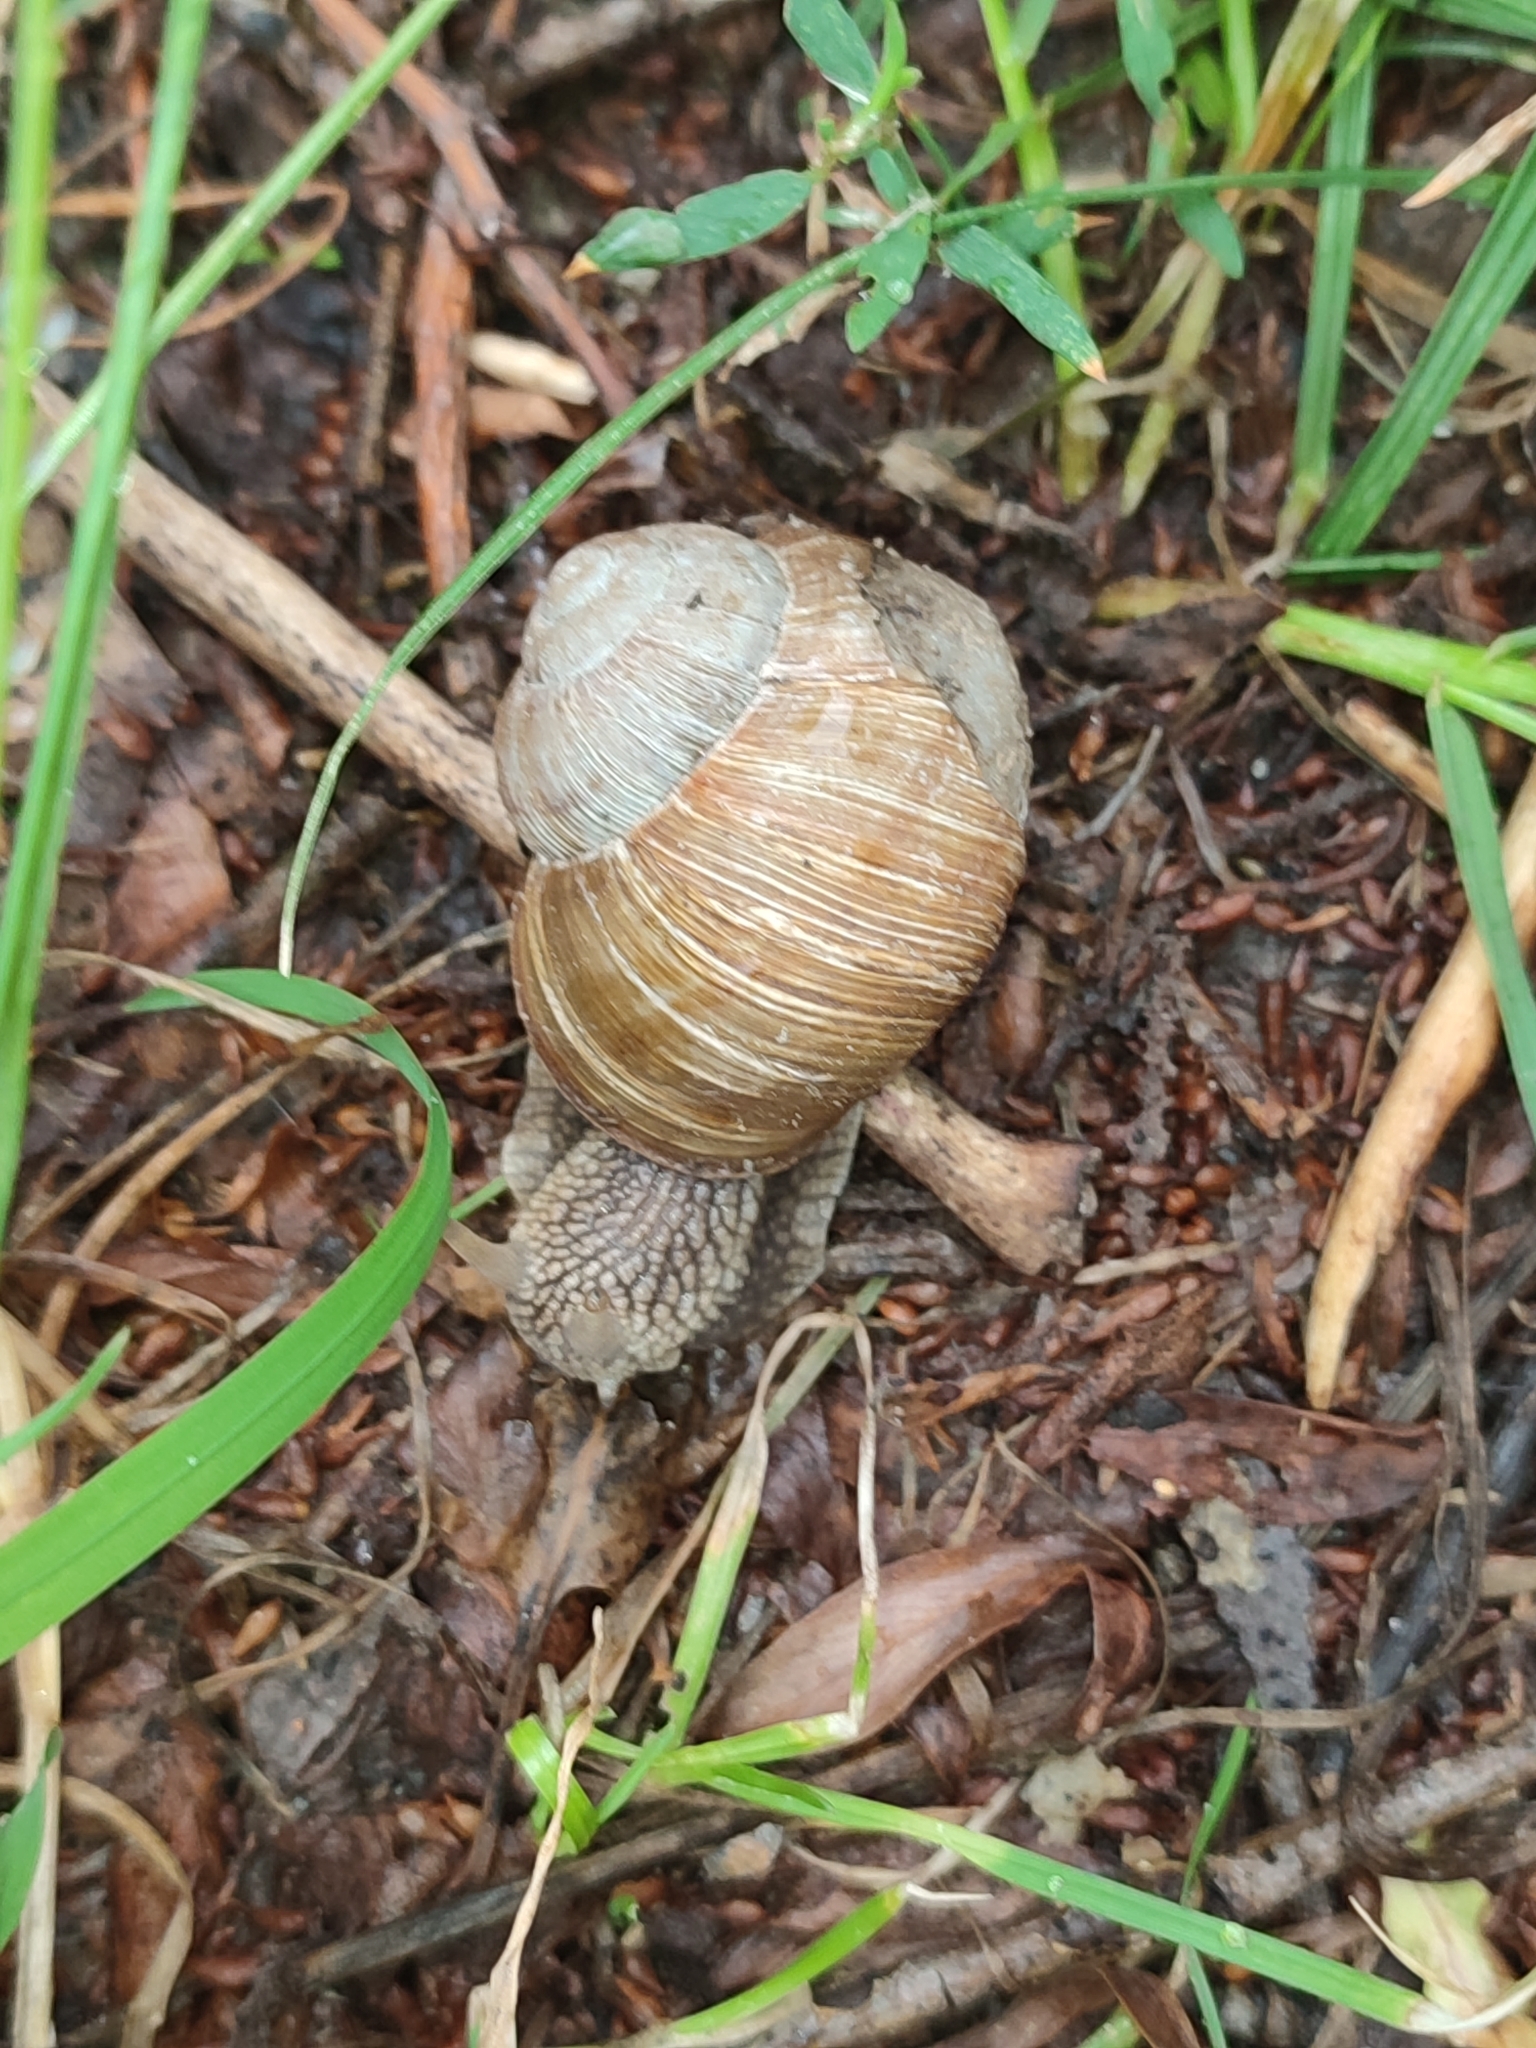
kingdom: Animalia
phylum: Mollusca
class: Gastropoda
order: Stylommatophora
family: Helicidae
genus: Helix
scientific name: Helix pomatia
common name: Roman snail
